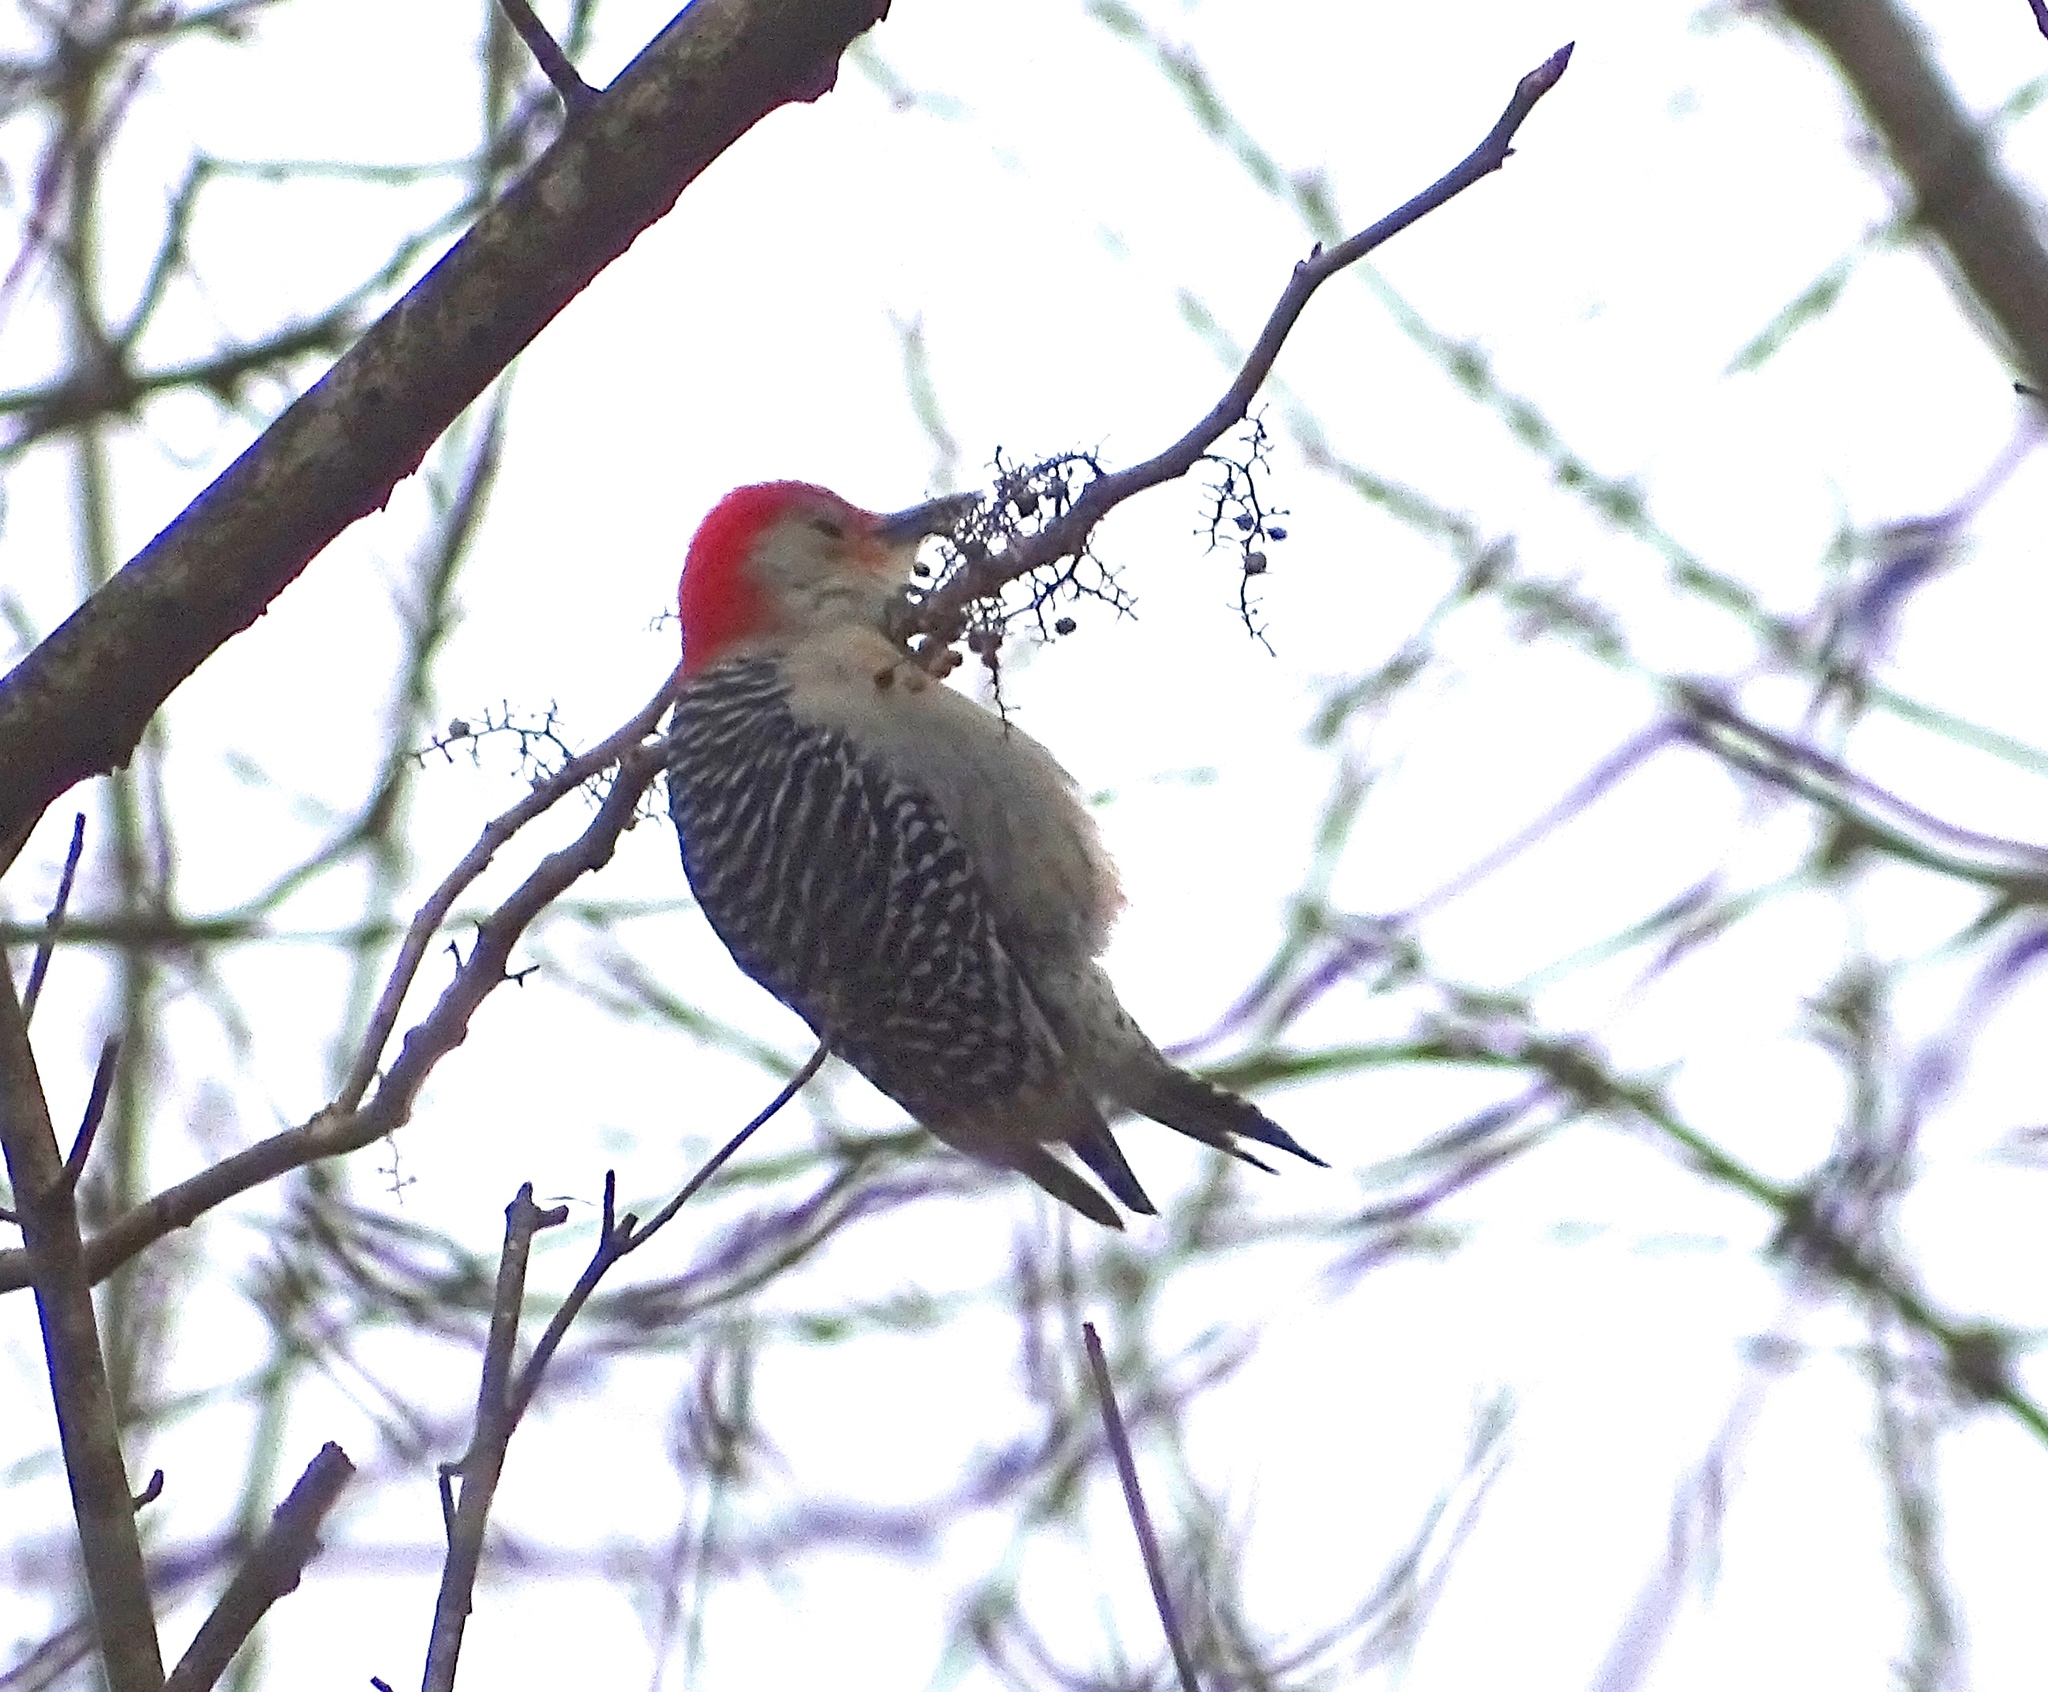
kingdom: Animalia
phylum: Chordata
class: Aves
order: Piciformes
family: Picidae
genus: Melanerpes
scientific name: Melanerpes carolinus
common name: Red-bellied woodpecker
